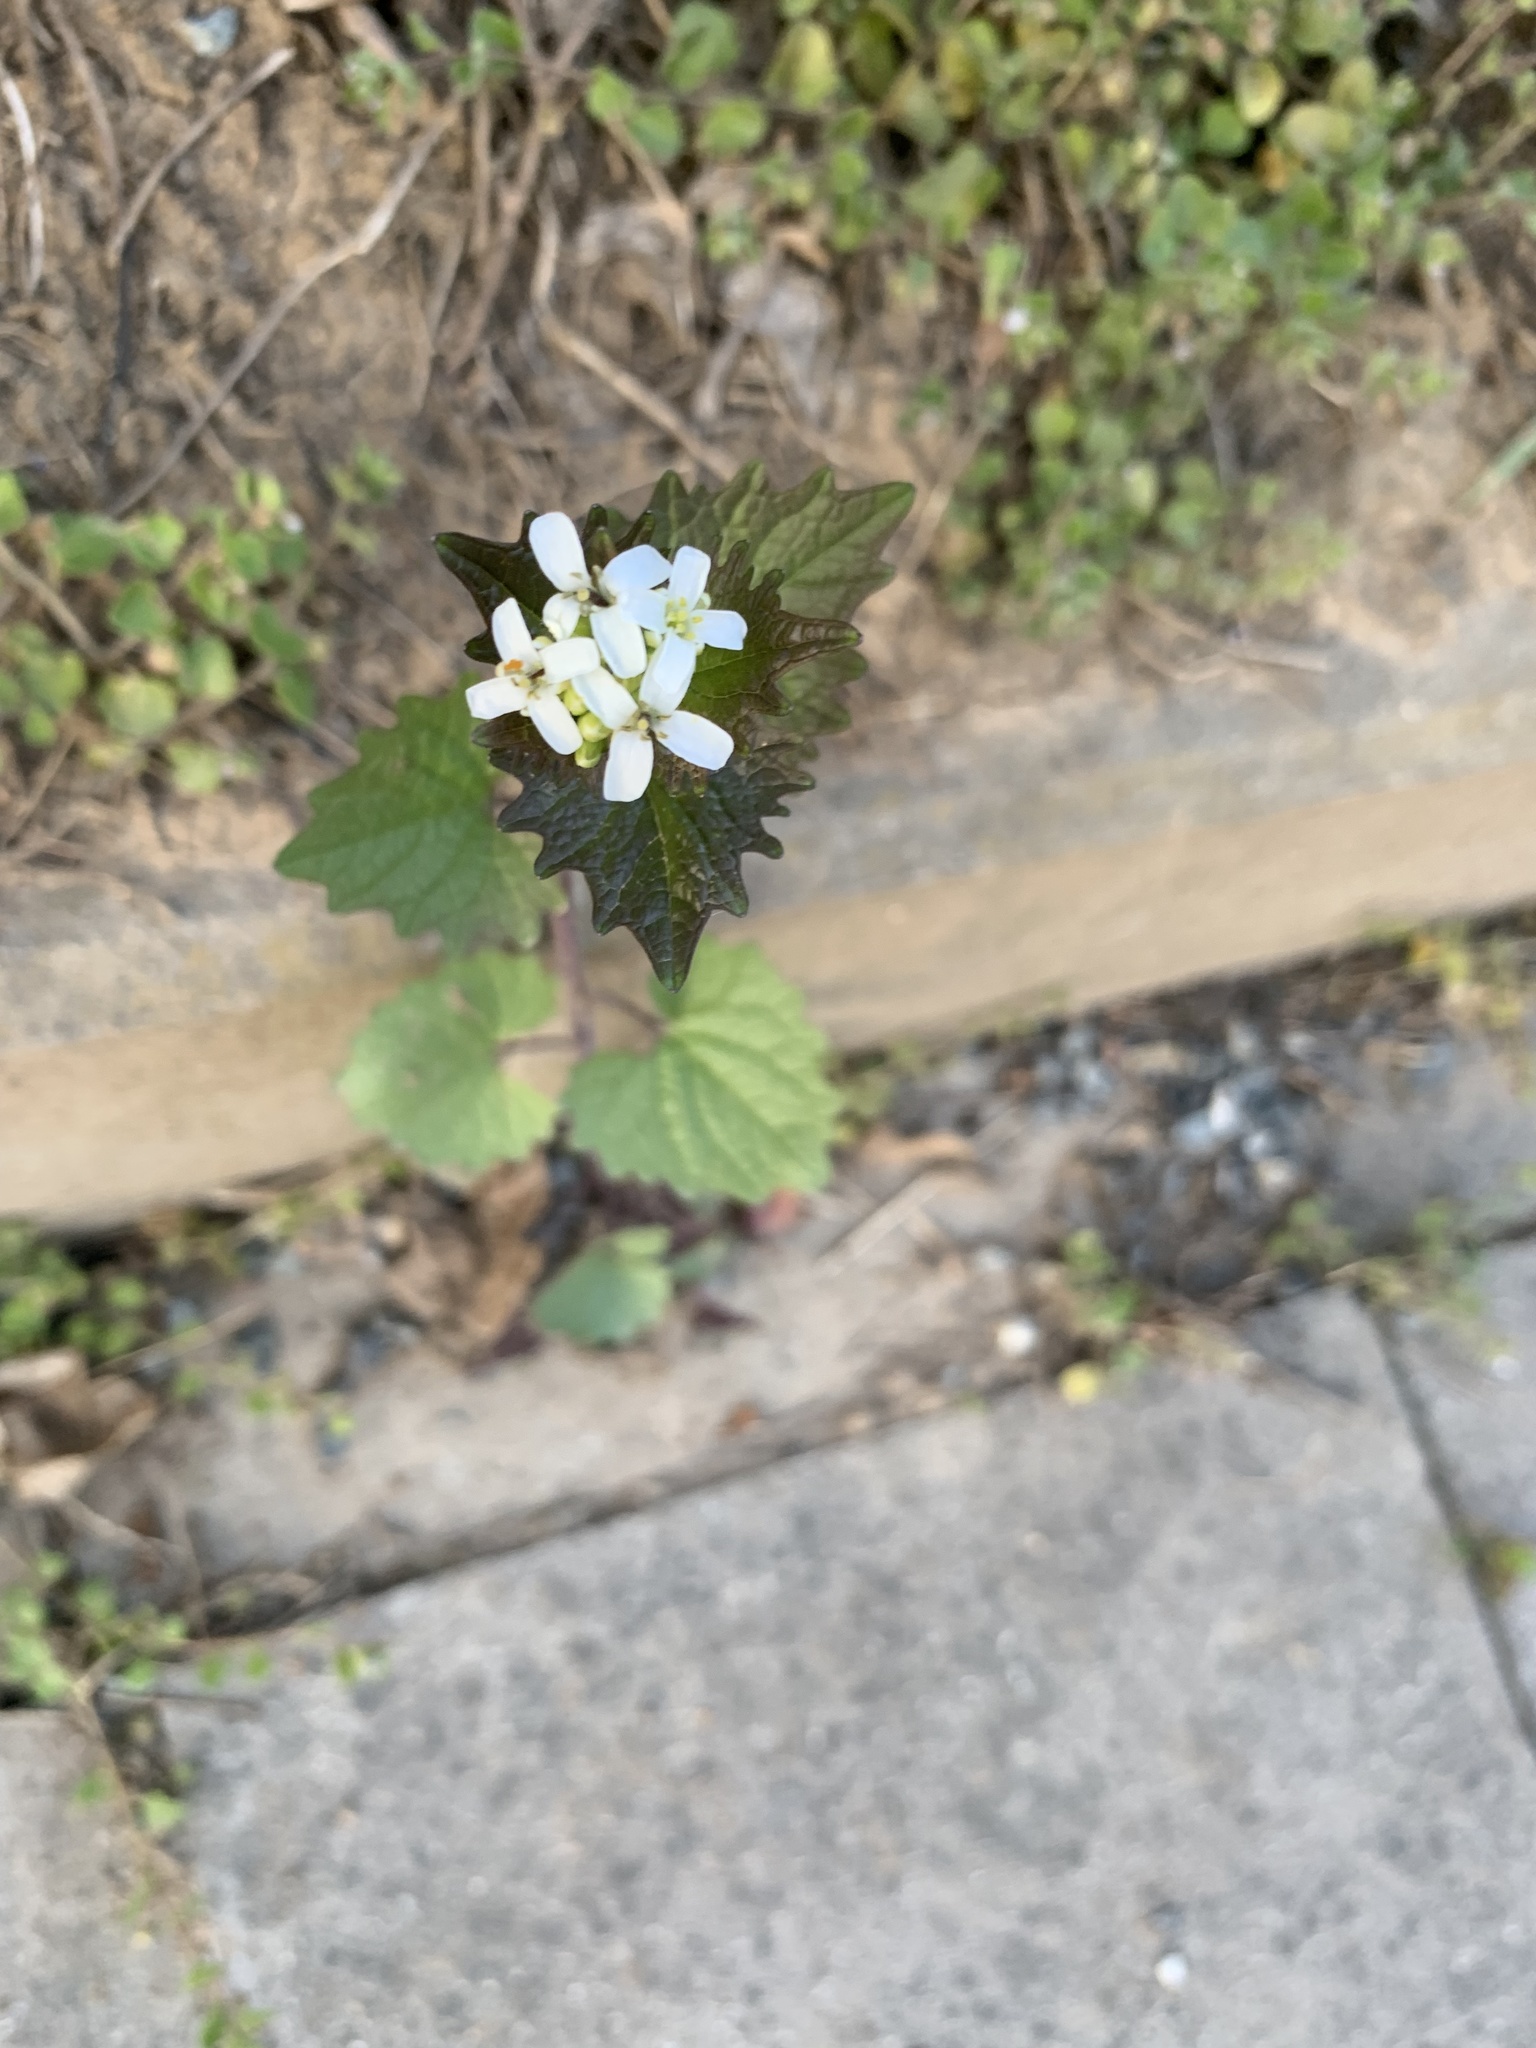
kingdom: Plantae
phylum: Tracheophyta
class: Magnoliopsida
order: Brassicales
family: Brassicaceae
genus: Alliaria
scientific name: Alliaria petiolata
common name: Garlic mustard
